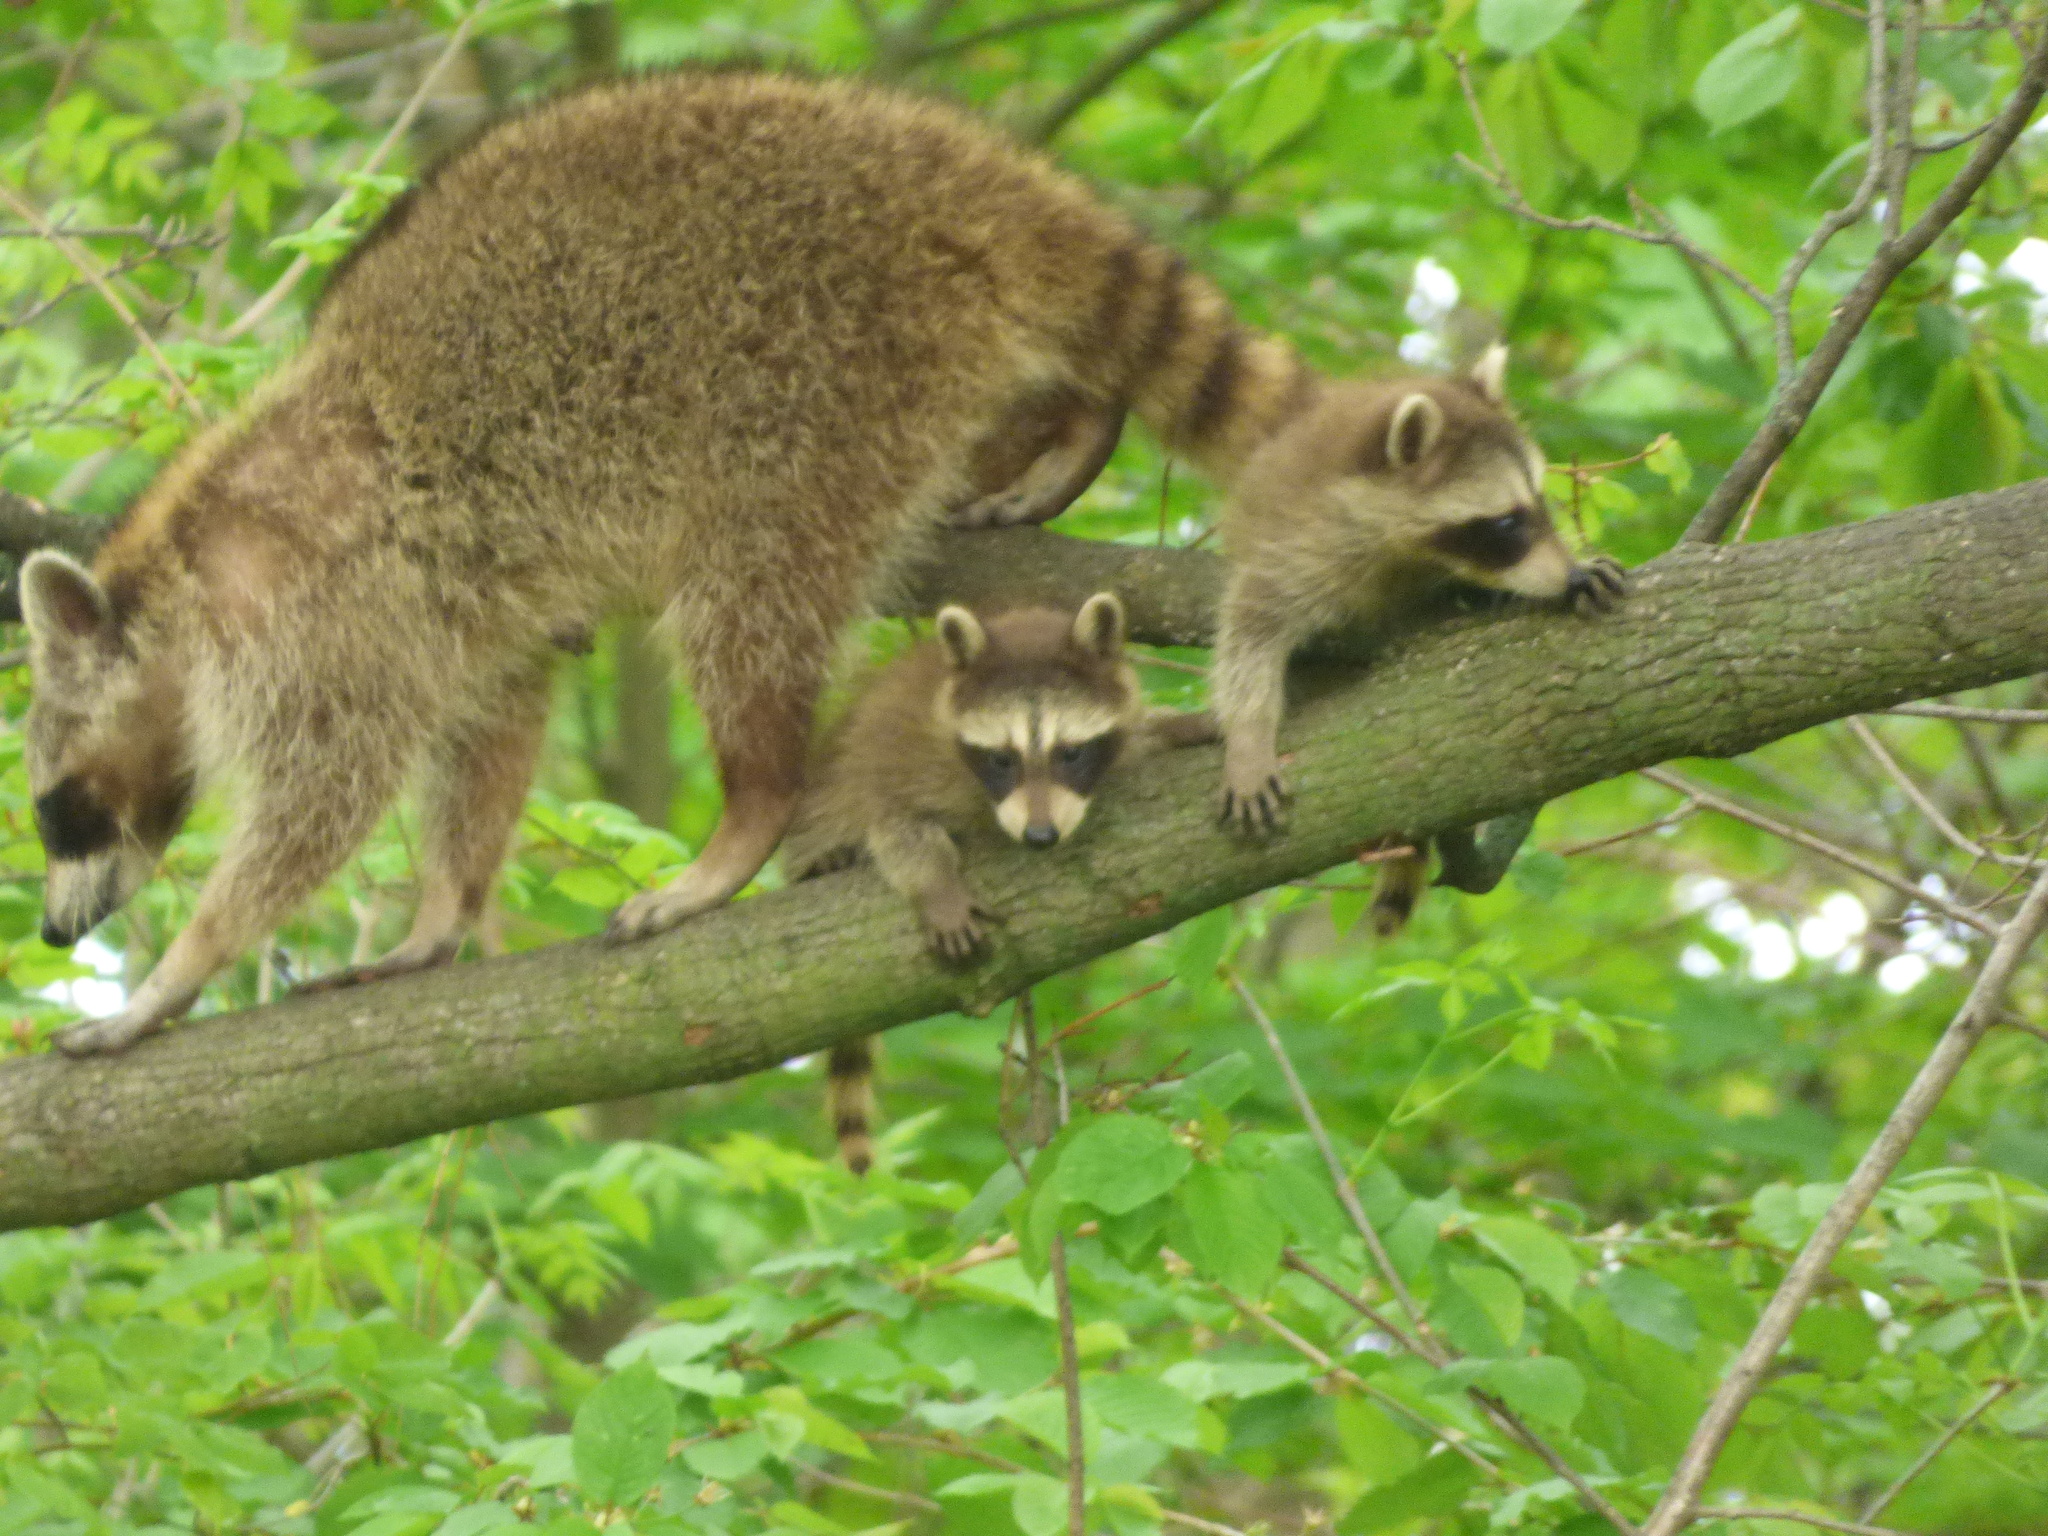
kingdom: Animalia
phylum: Chordata
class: Mammalia
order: Carnivora
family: Procyonidae
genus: Procyon
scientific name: Procyon lotor
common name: Raccoon
